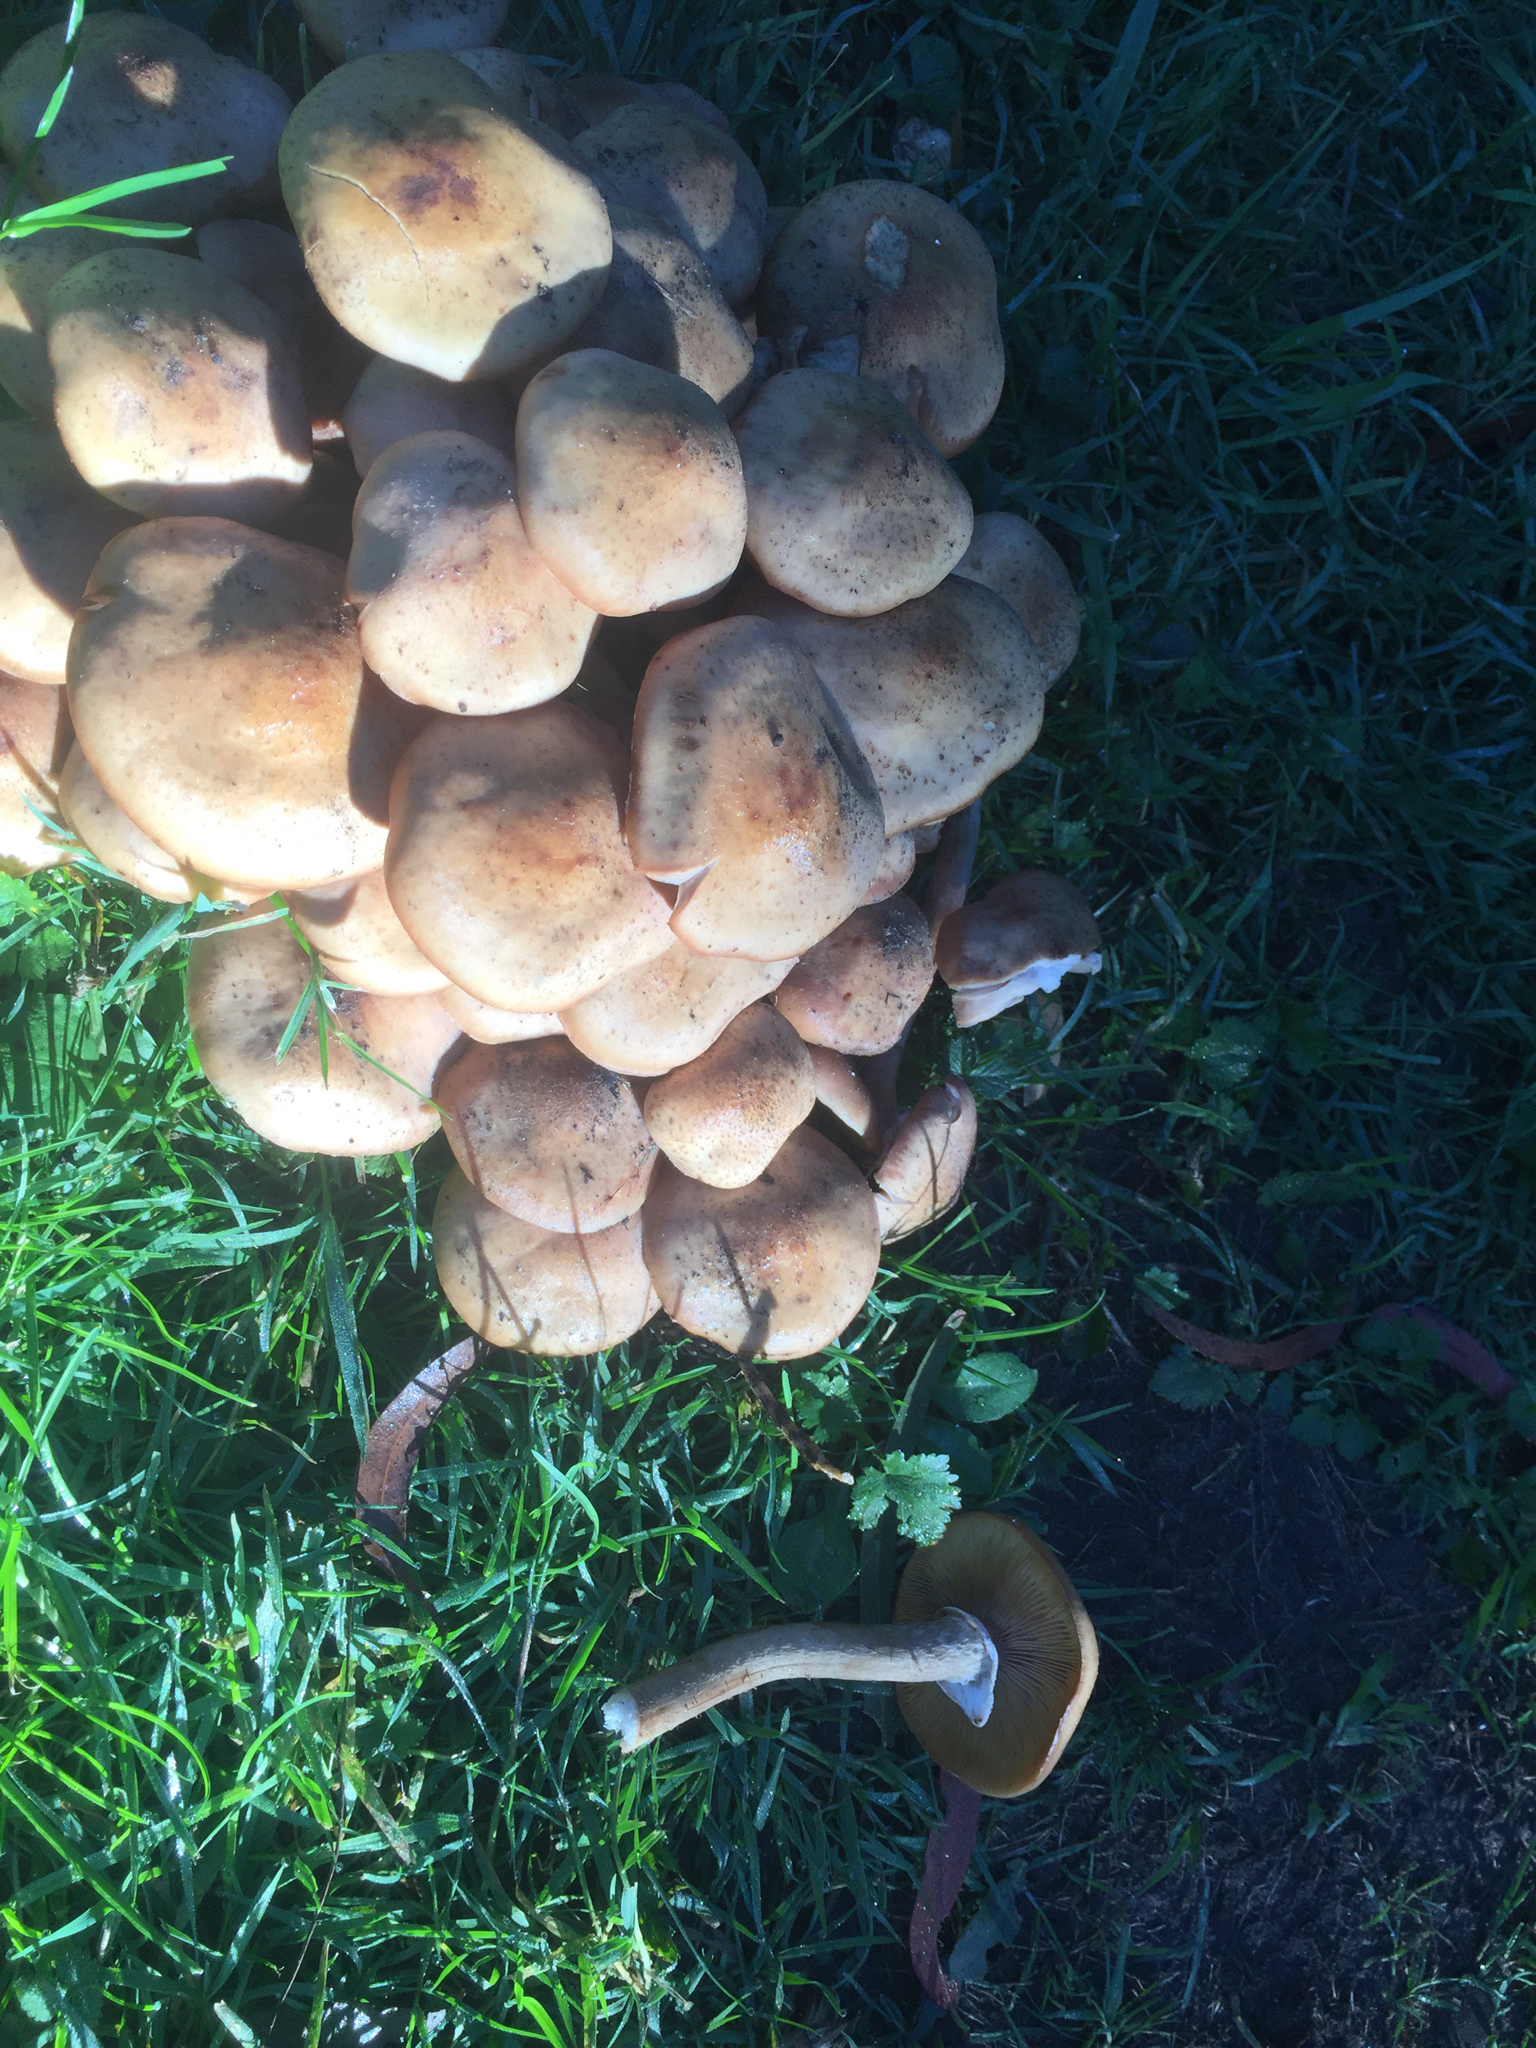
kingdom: Fungi
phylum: Basidiomycota
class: Agaricomycetes
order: Agaricales
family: Physalacriaceae
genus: Armillaria
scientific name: Armillaria mellea
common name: Honey fungus
